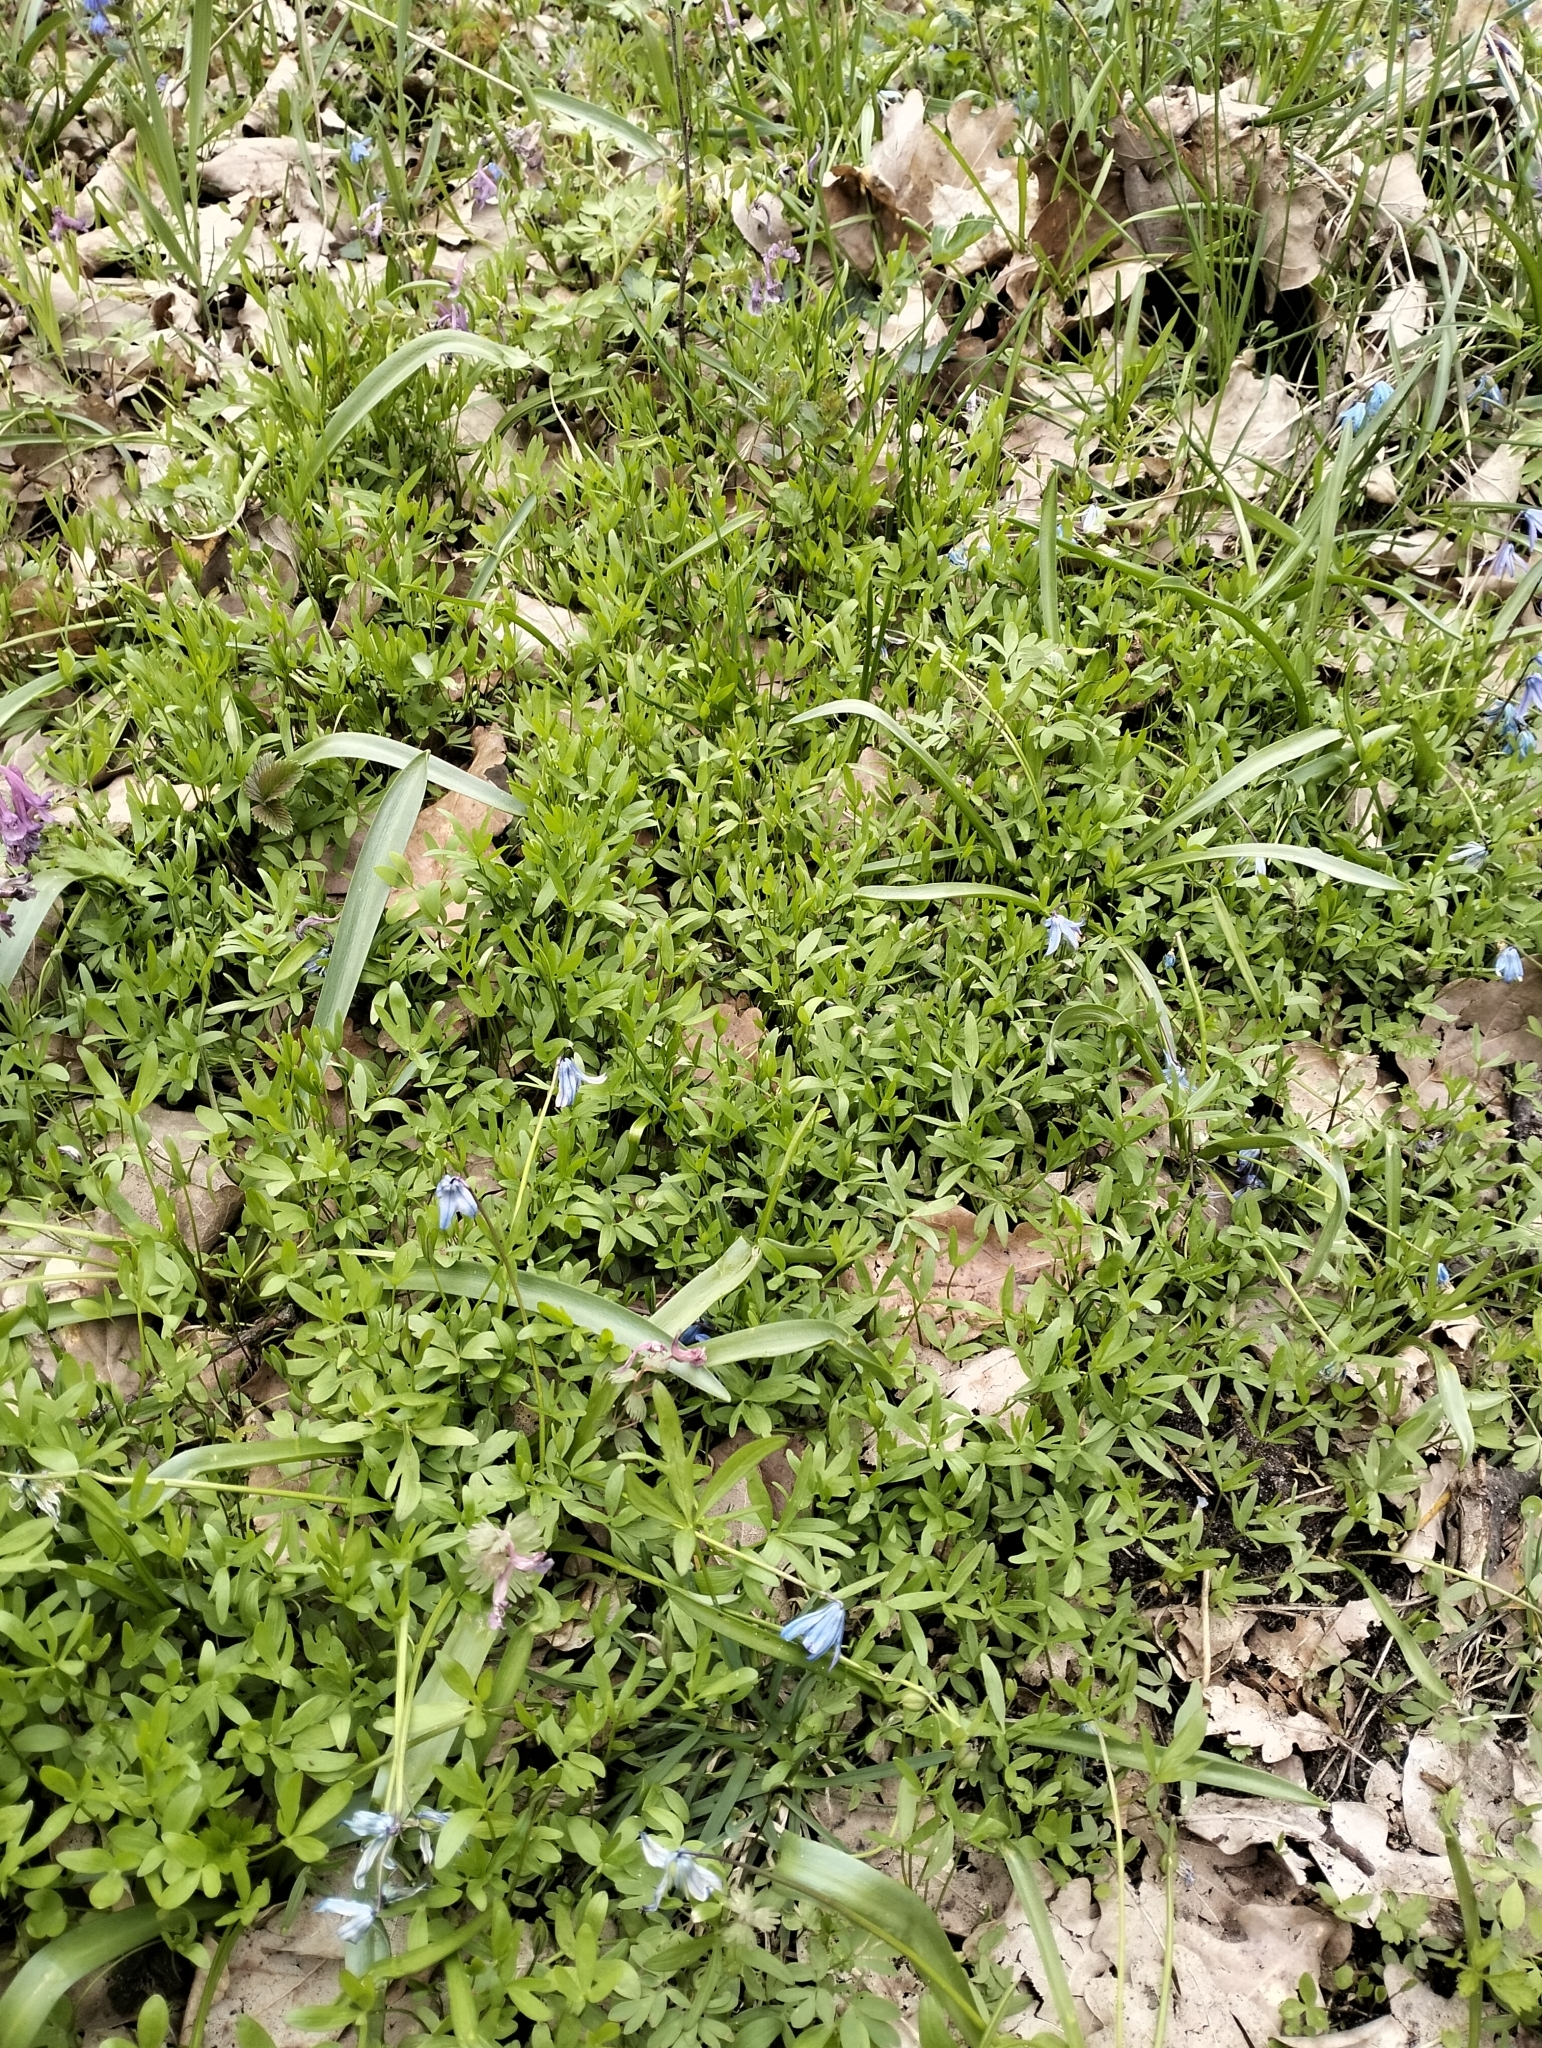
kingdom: Plantae
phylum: Tracheophyta
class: Magnoliopsida
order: Ranunculales
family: Ranunculaceae
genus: Ranunculus
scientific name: Ranunculus pedatus
